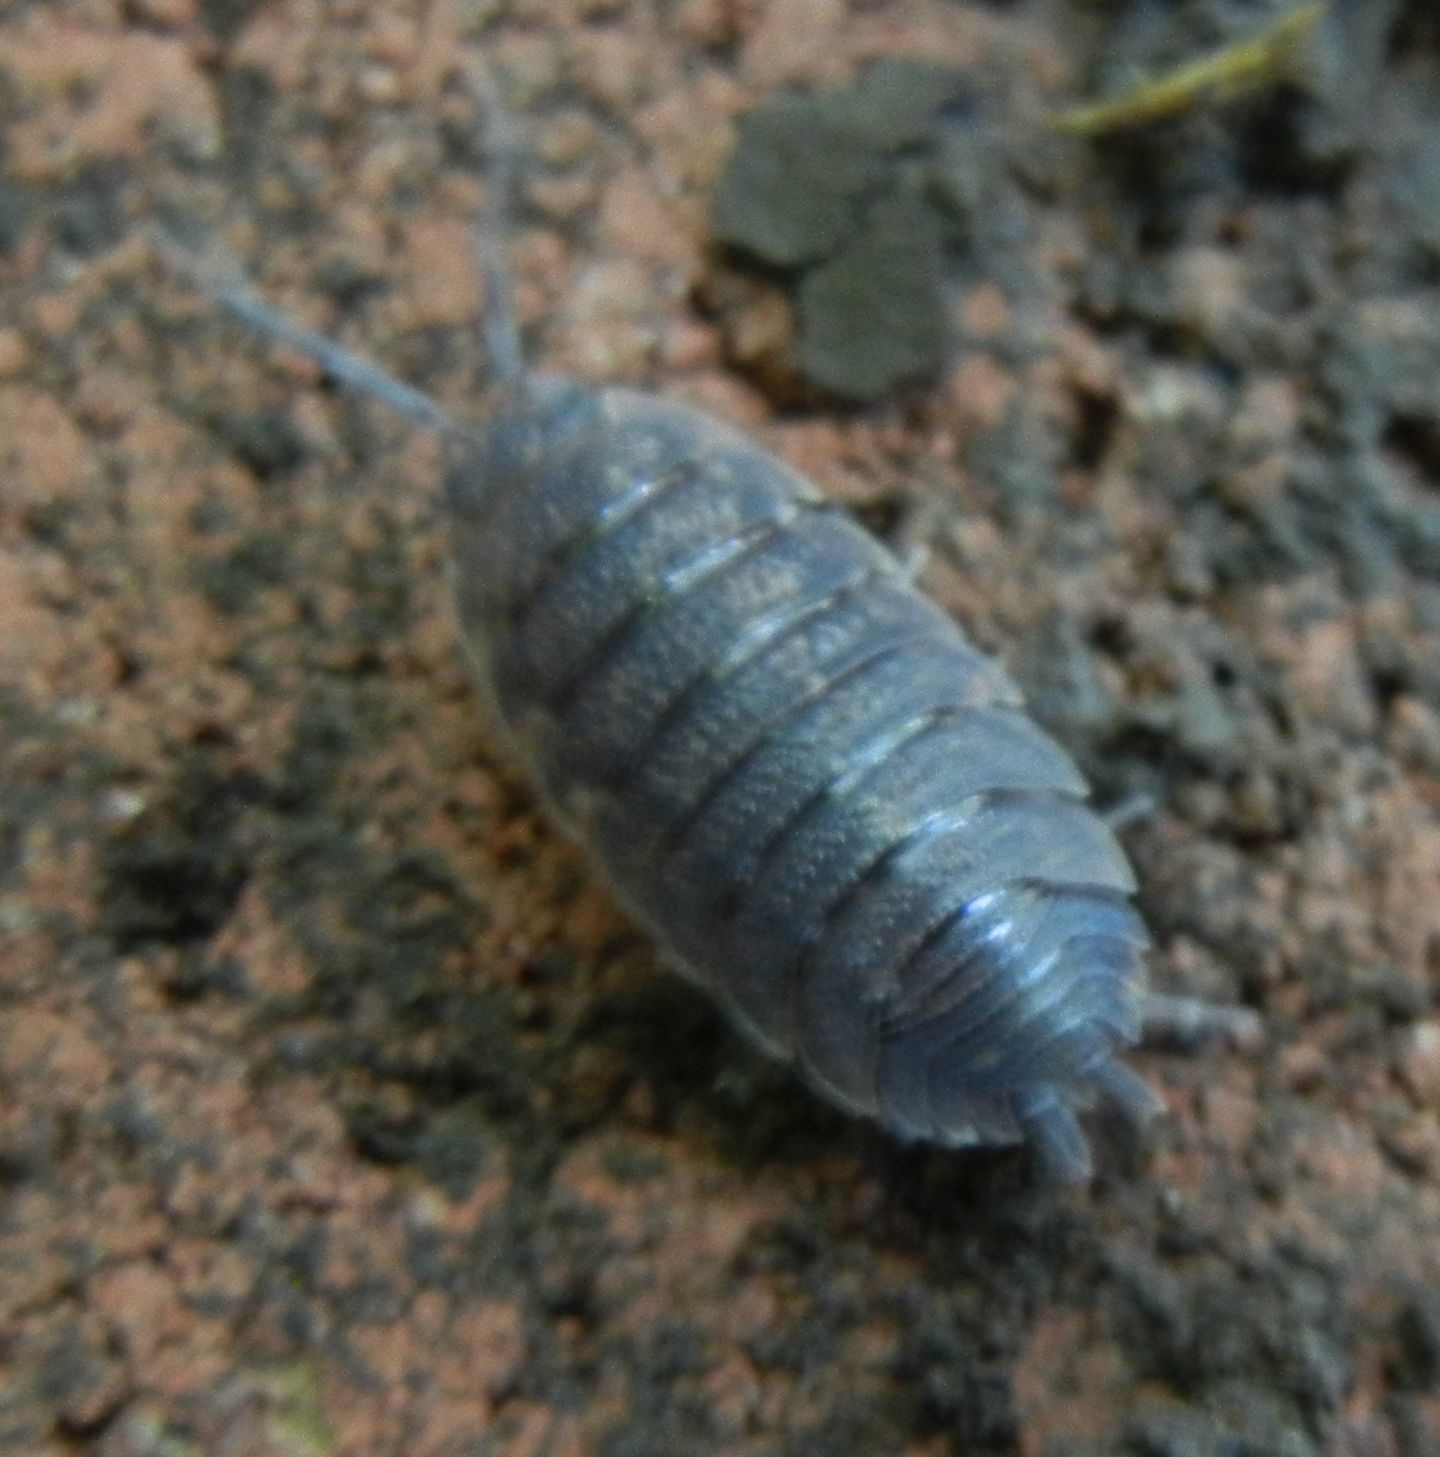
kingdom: Animalia
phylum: Arthropoda
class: Malacostraca
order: Isopoda
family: Porcellionidae
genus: Porcellio
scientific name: Porcellio scaber
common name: Common rough woodlouse
